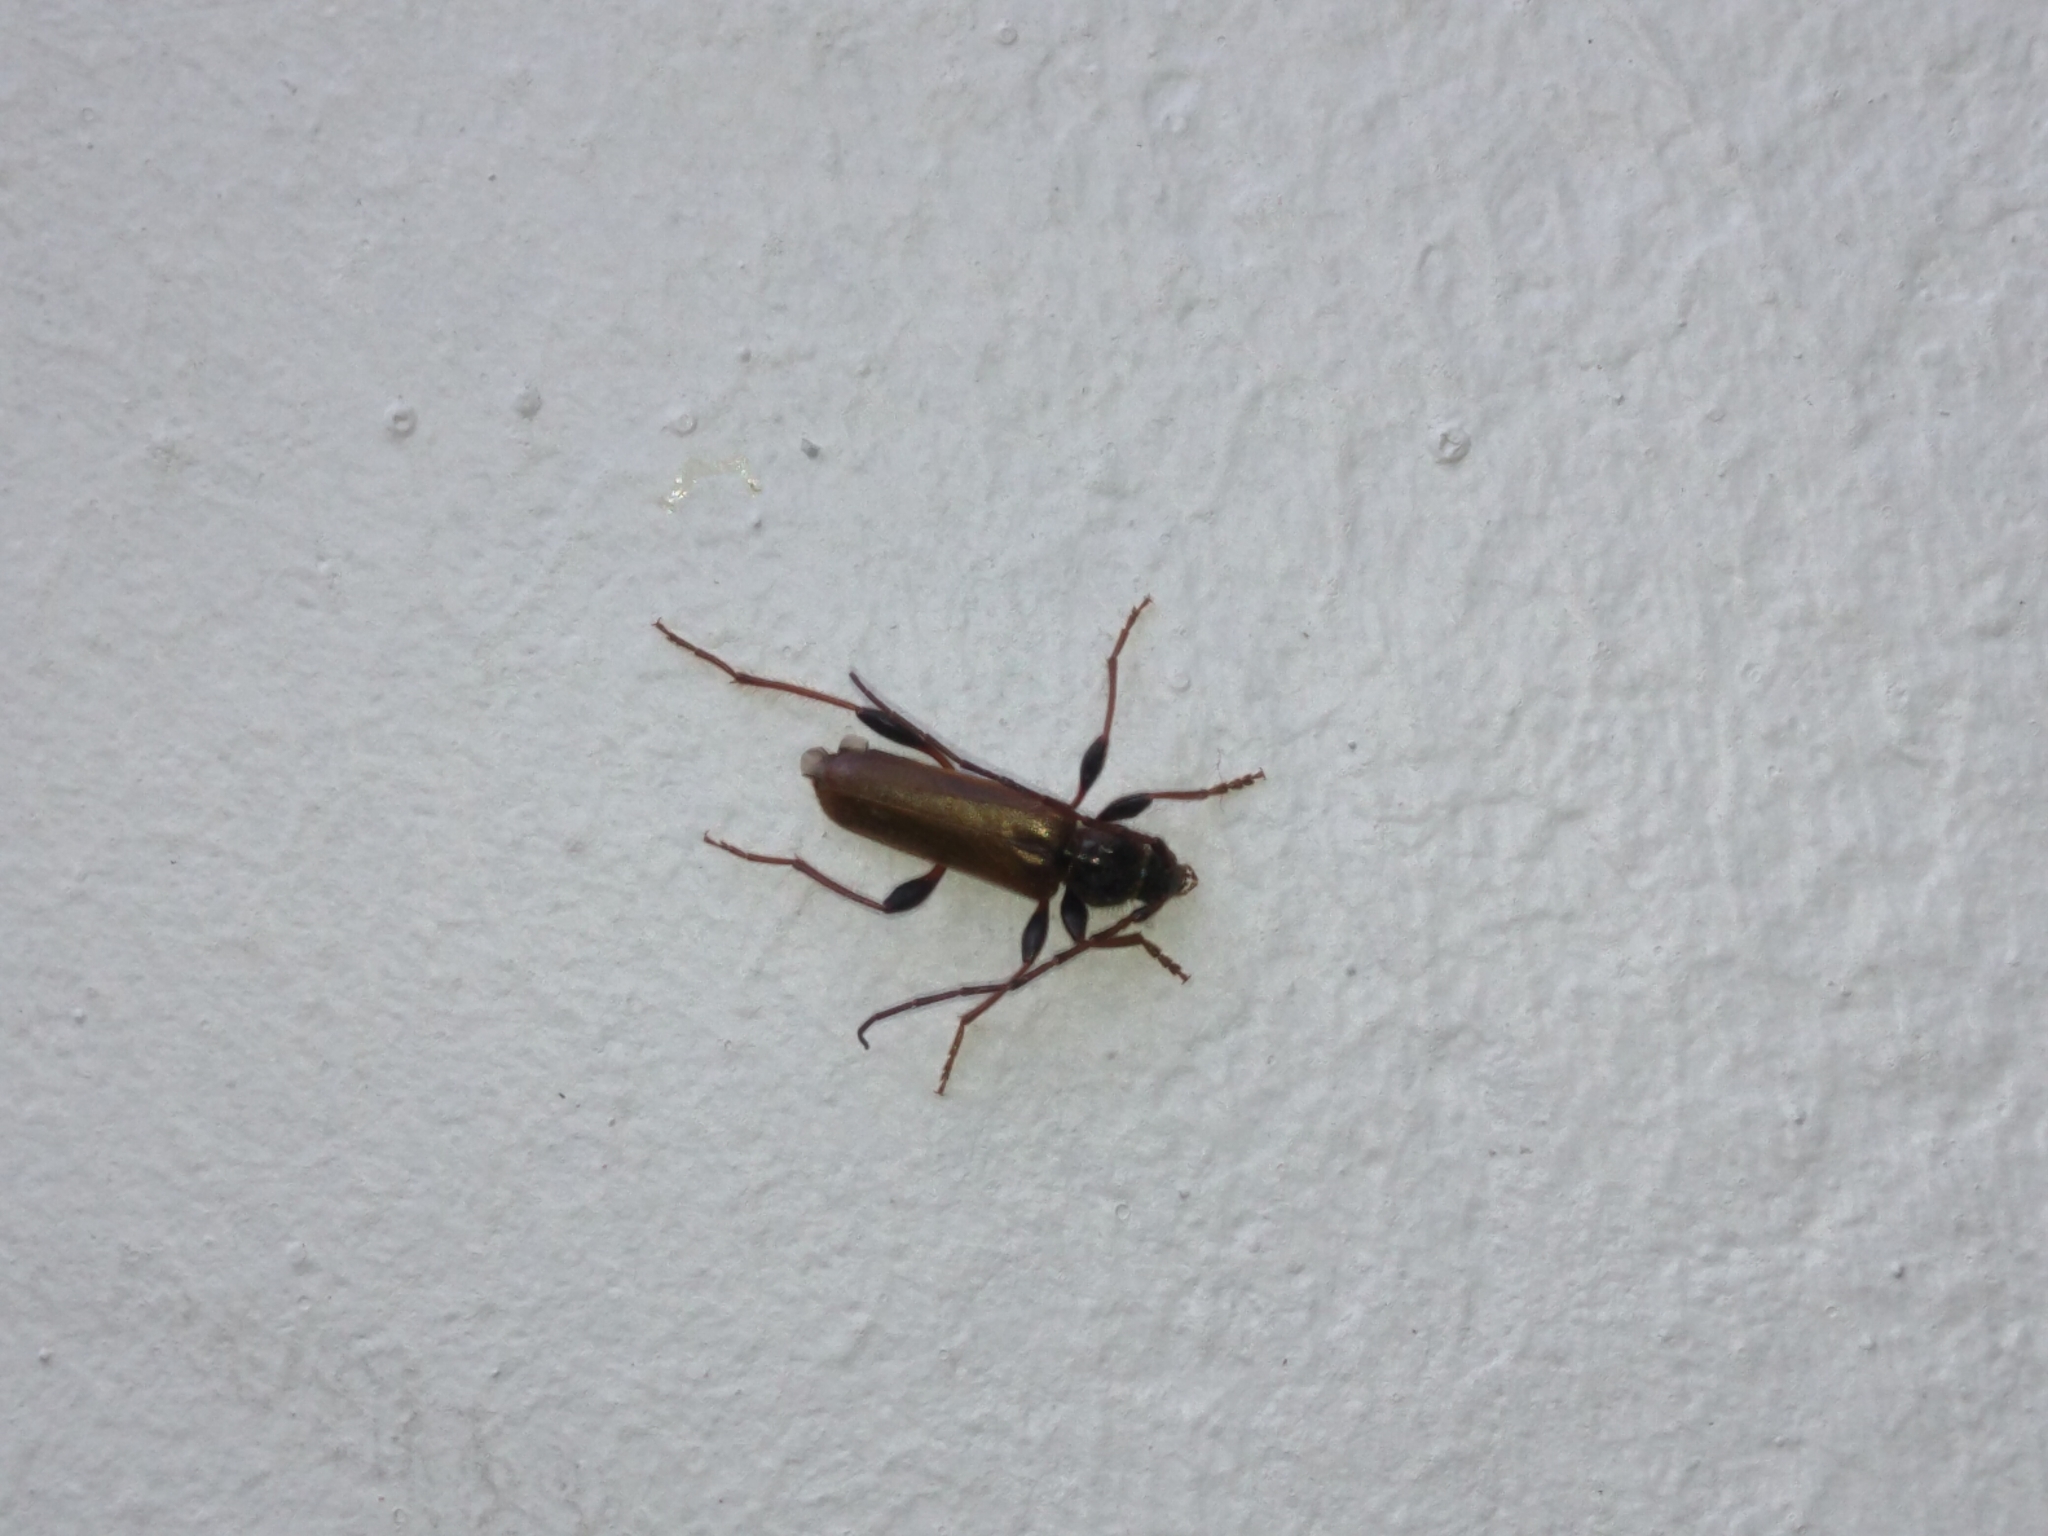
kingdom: Animalia
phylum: Arthropoda
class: Insecta
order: Coleoptera
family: Cerambycidae
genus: Phymatodes
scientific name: Phymatodes testaceus
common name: Long-horned beetle
